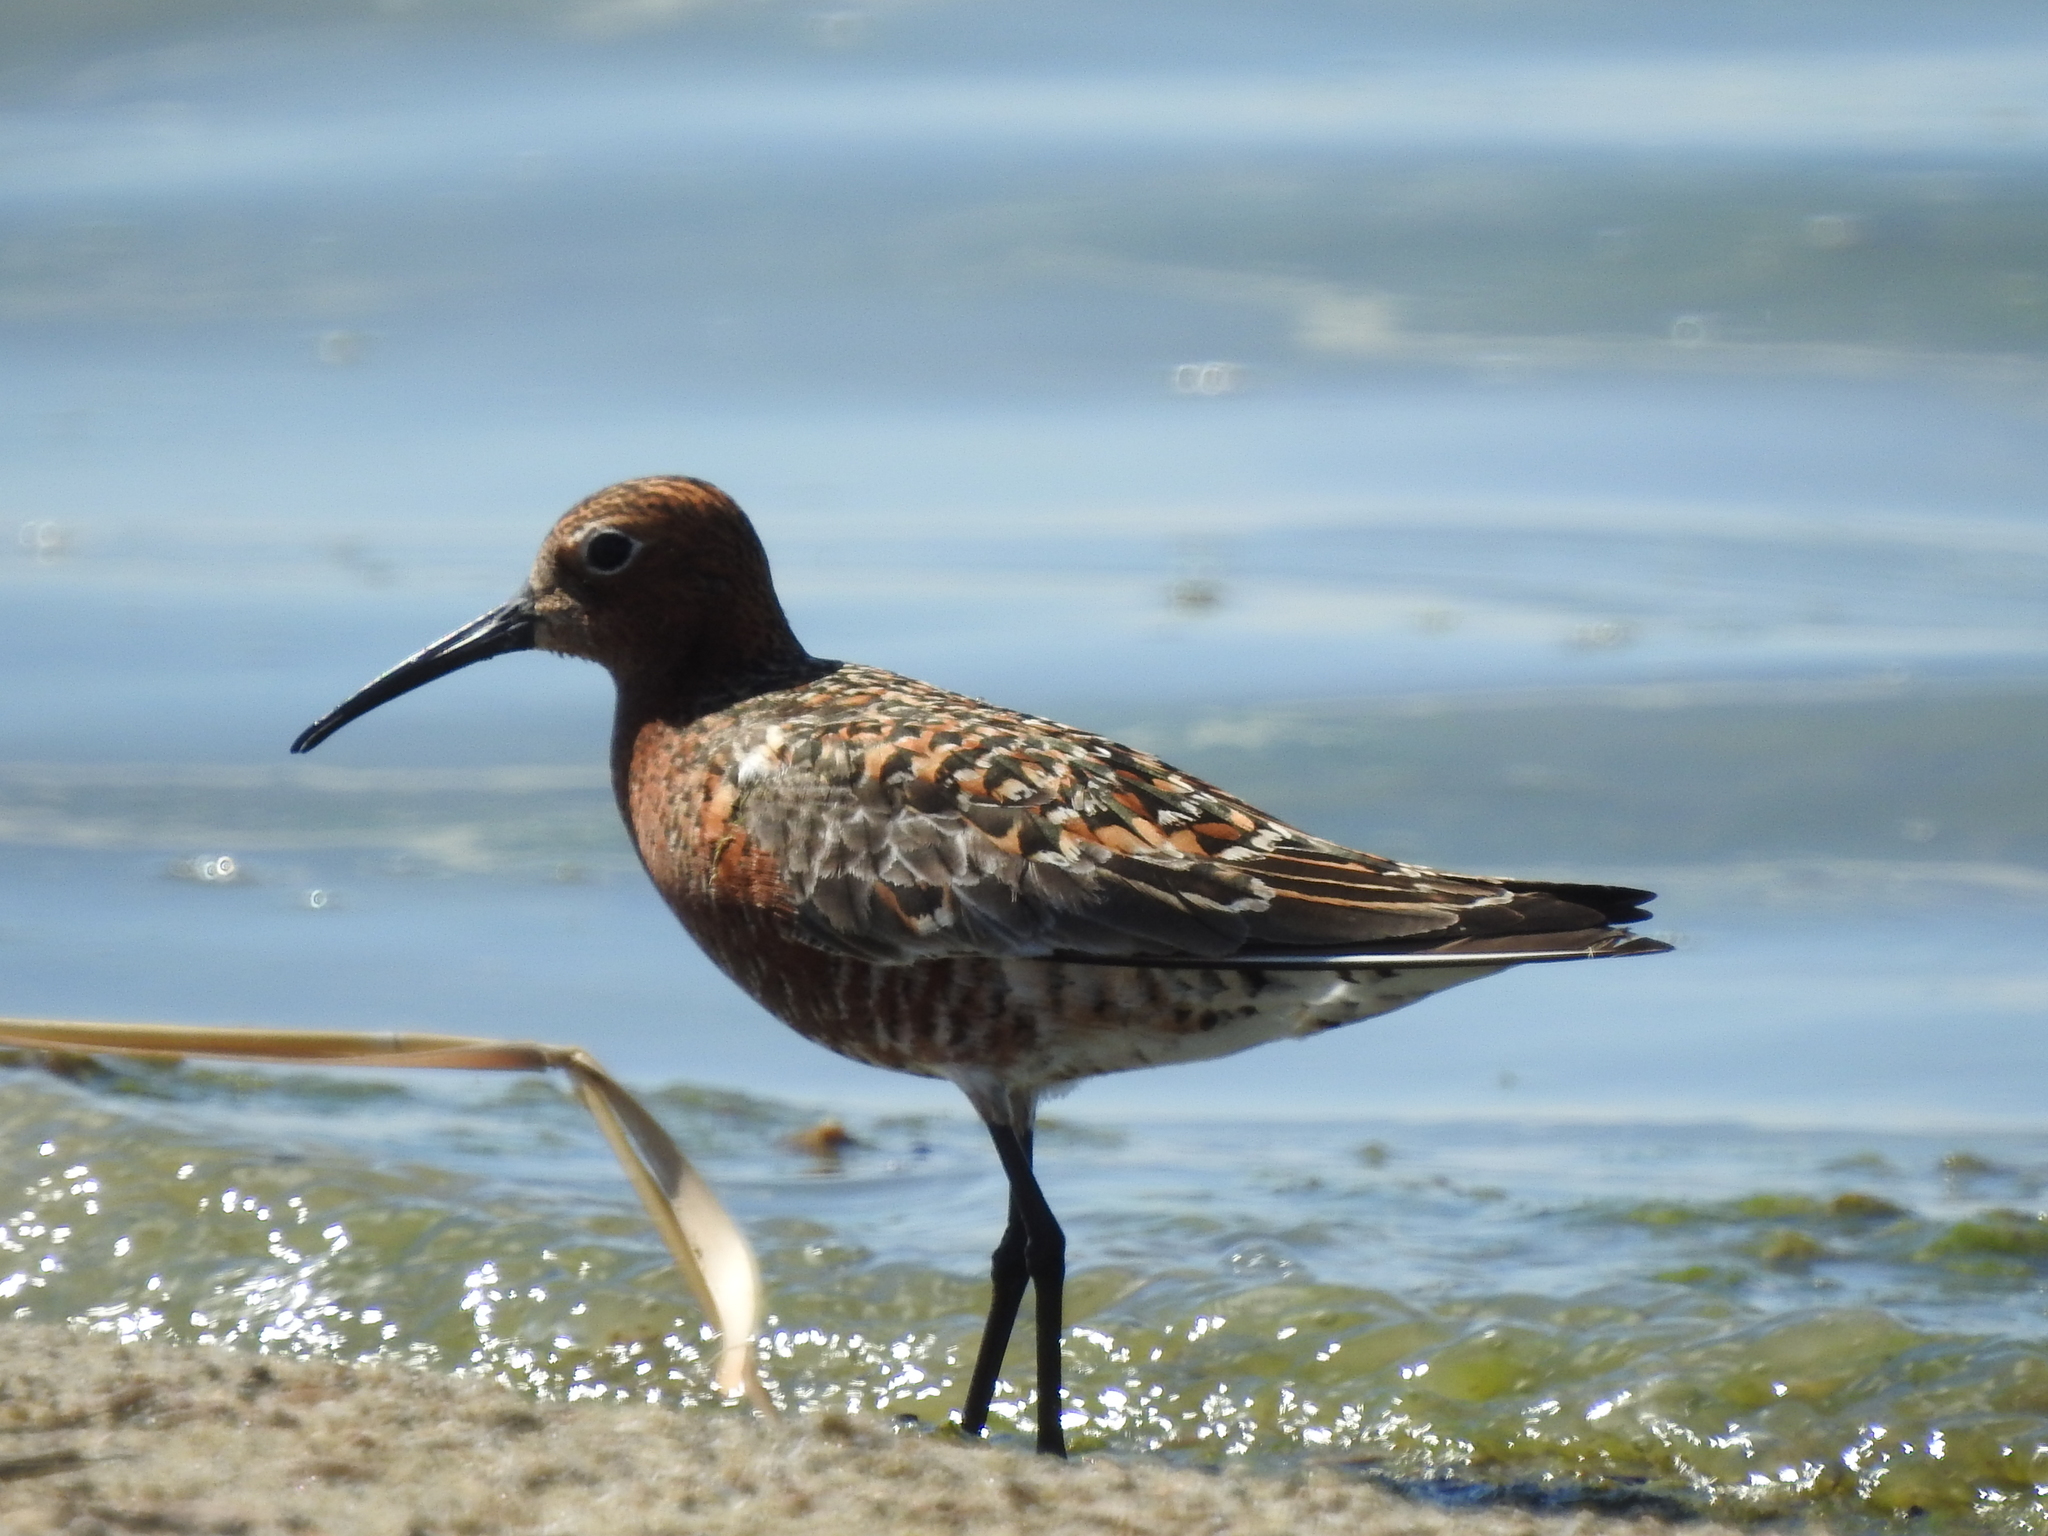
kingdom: Animalia
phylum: Chordata
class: Aves
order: Charadriiformes
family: Scolopacidae
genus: Calidris
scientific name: Calidris ferruginea
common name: Curlew sandpiper
